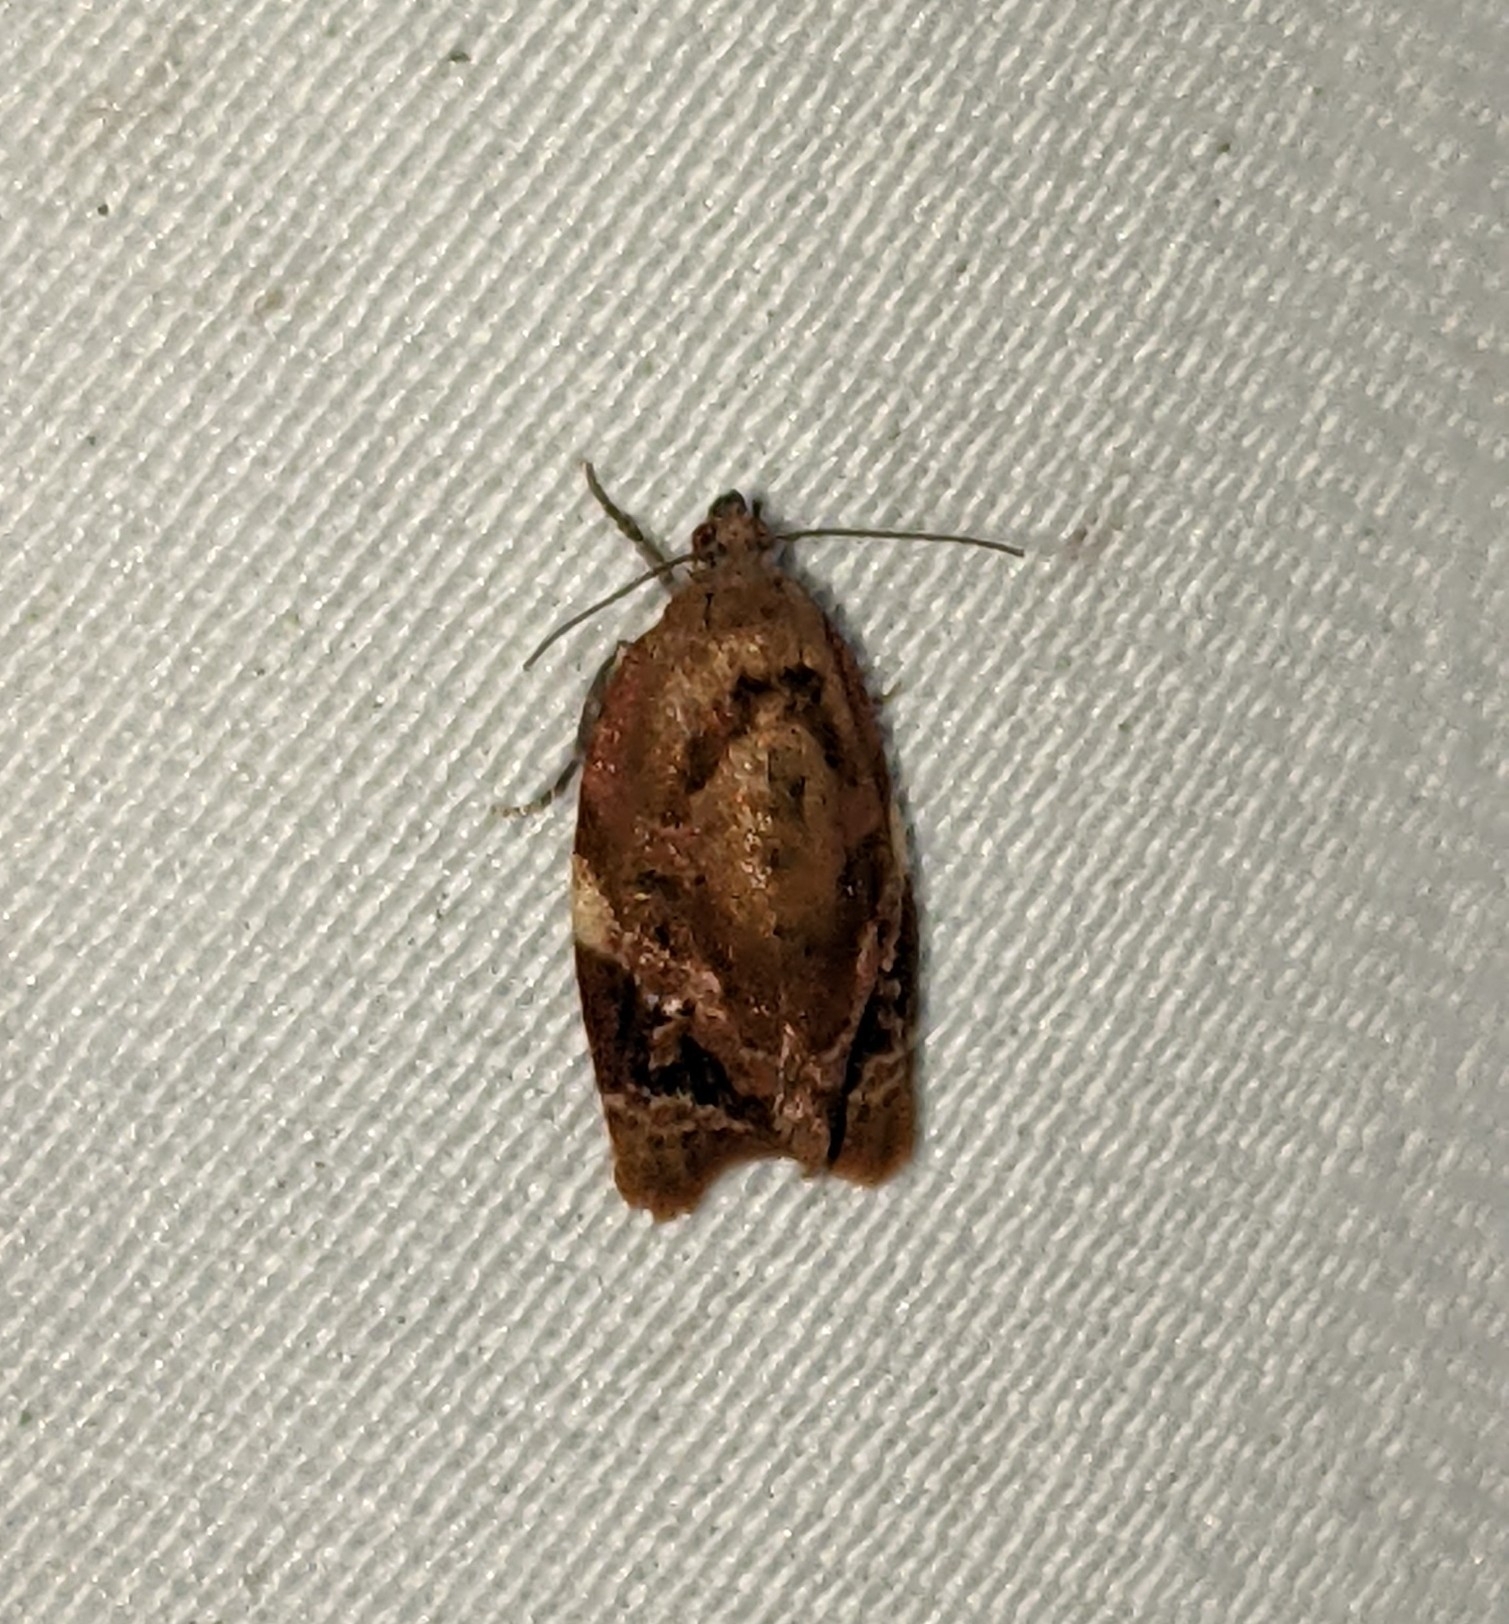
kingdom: Animalia
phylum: Arthropoda
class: Insecta
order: Lepidoptera
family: Tortricidae
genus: Ditula
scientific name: Ditula angustiorana
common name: Red-barred tortrix
